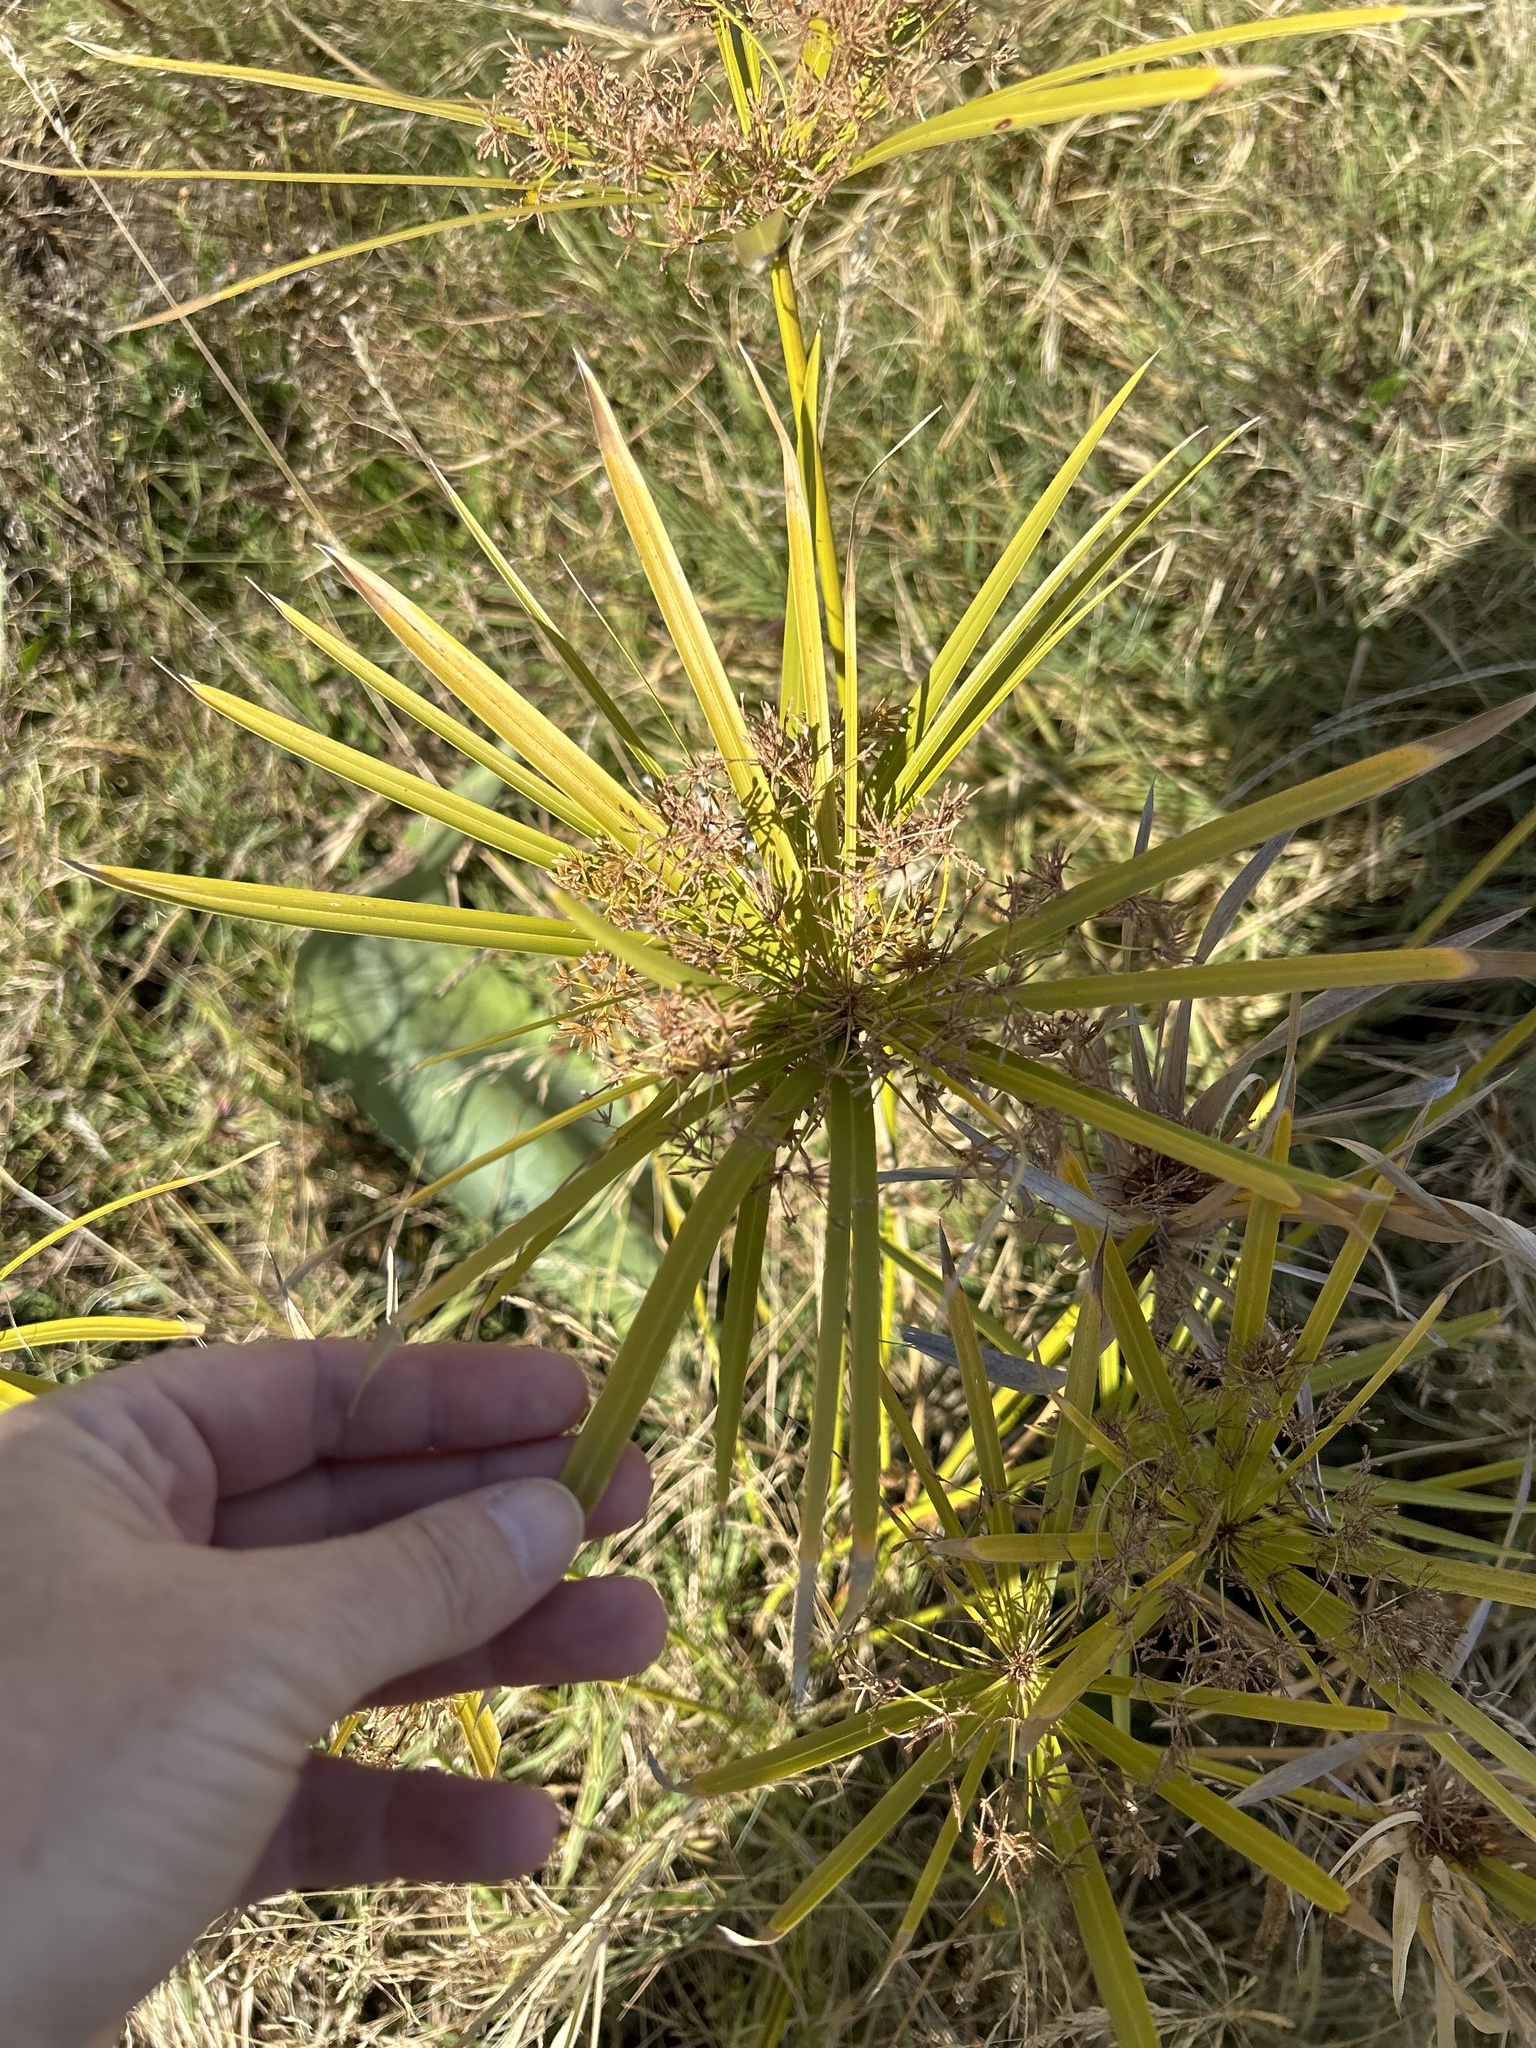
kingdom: Plantae
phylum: Tracheophyta
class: Liliopsida
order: Poales
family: Cyperaceae
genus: Cyperus
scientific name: Cyperus alternifolius
